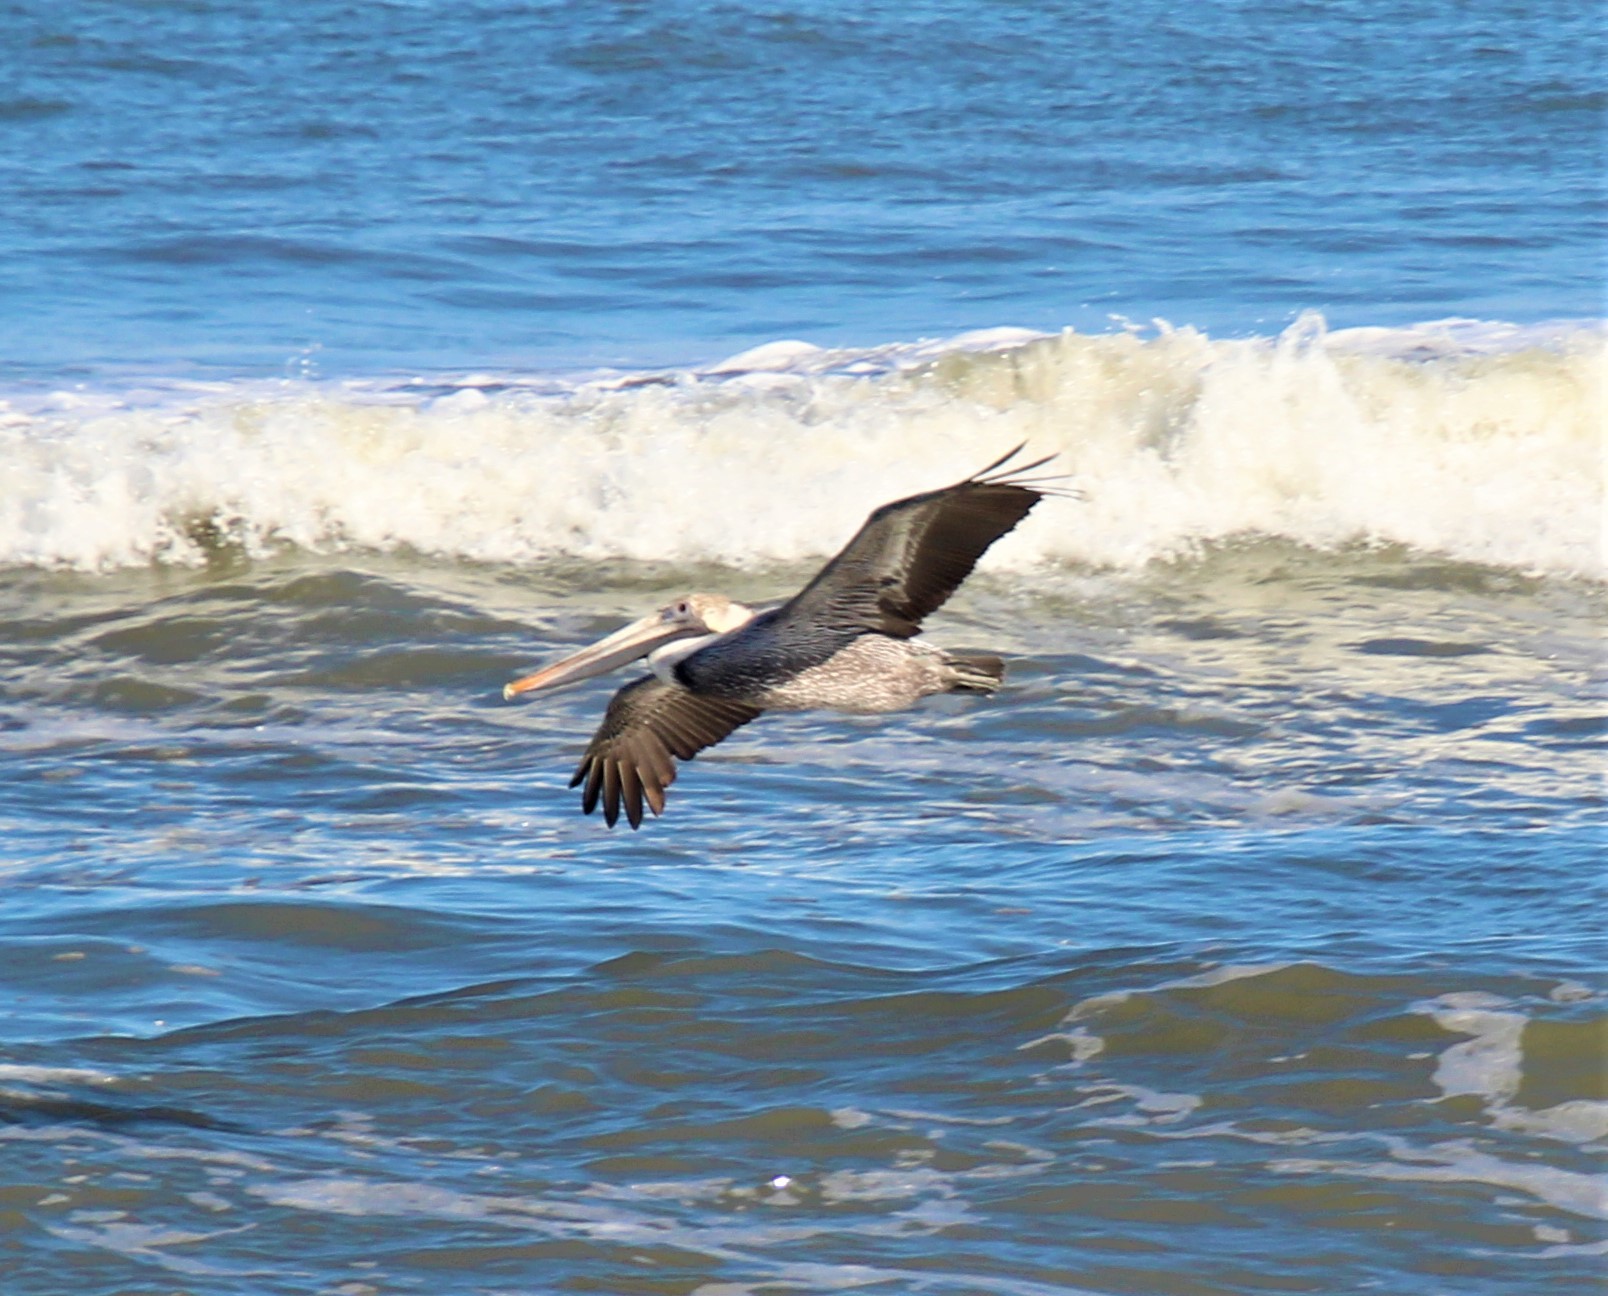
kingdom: Animalia
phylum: Chordata
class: Aves
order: Pelecaniformes
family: Pelecanidae
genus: Pelecanus
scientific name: Pelecanus occidentalis
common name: Brown pelican
